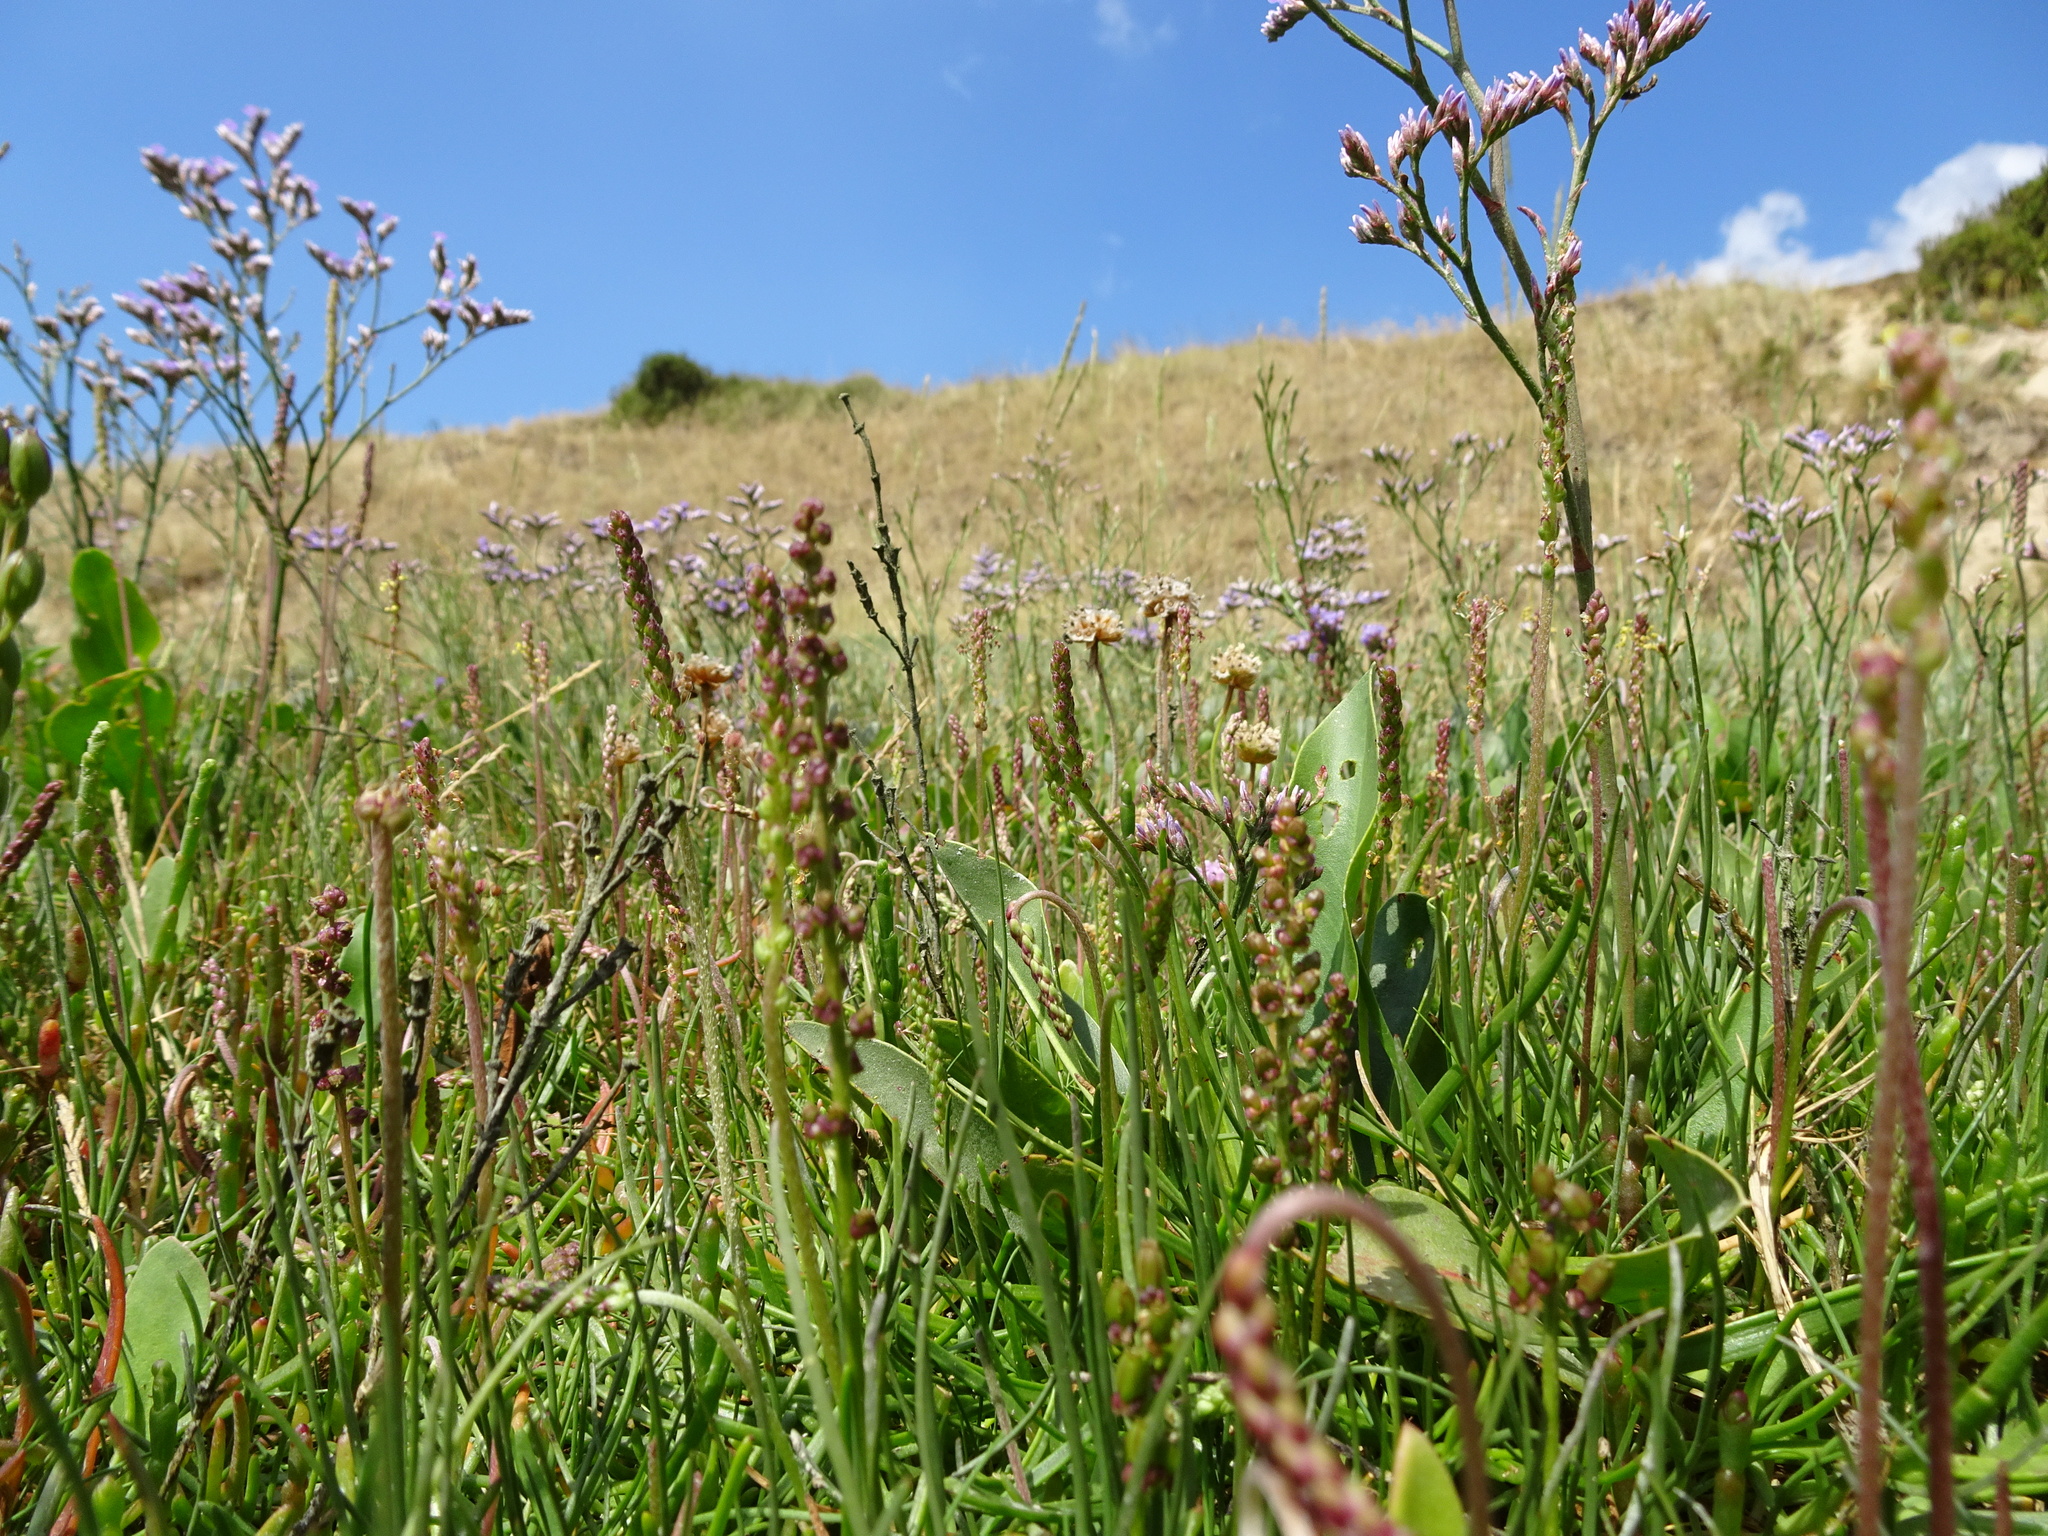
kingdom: Plantae
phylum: Tracheophyta
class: Liliopsida
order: Alismatales
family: Juncaginaceae
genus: Triglochin
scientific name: Triglochin maritima
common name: Sea arrowgrass
